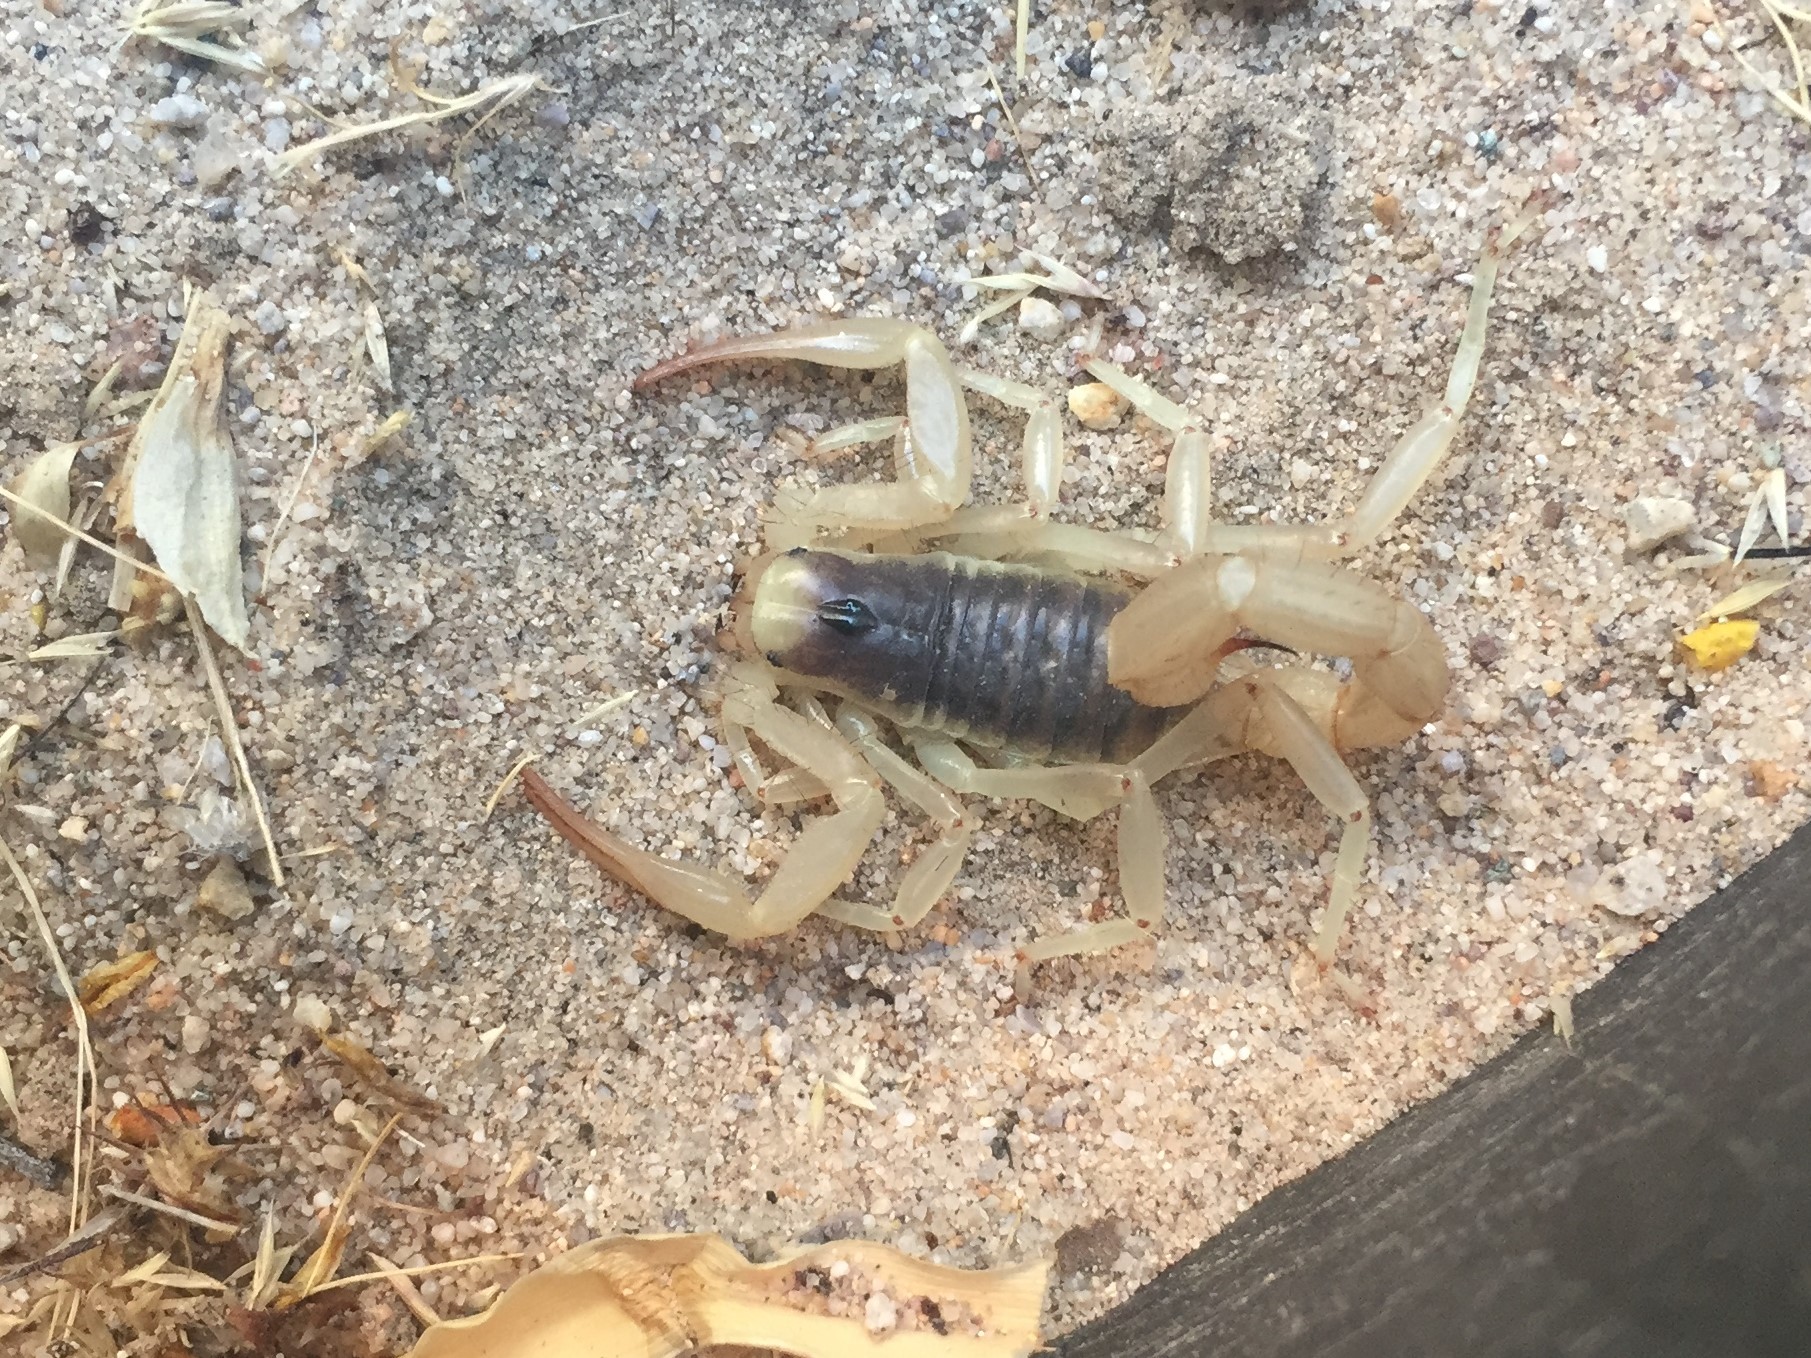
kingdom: Animalia
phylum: Arthropoda
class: Arachnida
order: Scorpiones
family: Hadruridae
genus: Hadrurus
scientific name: Hadrurus arizonensis
